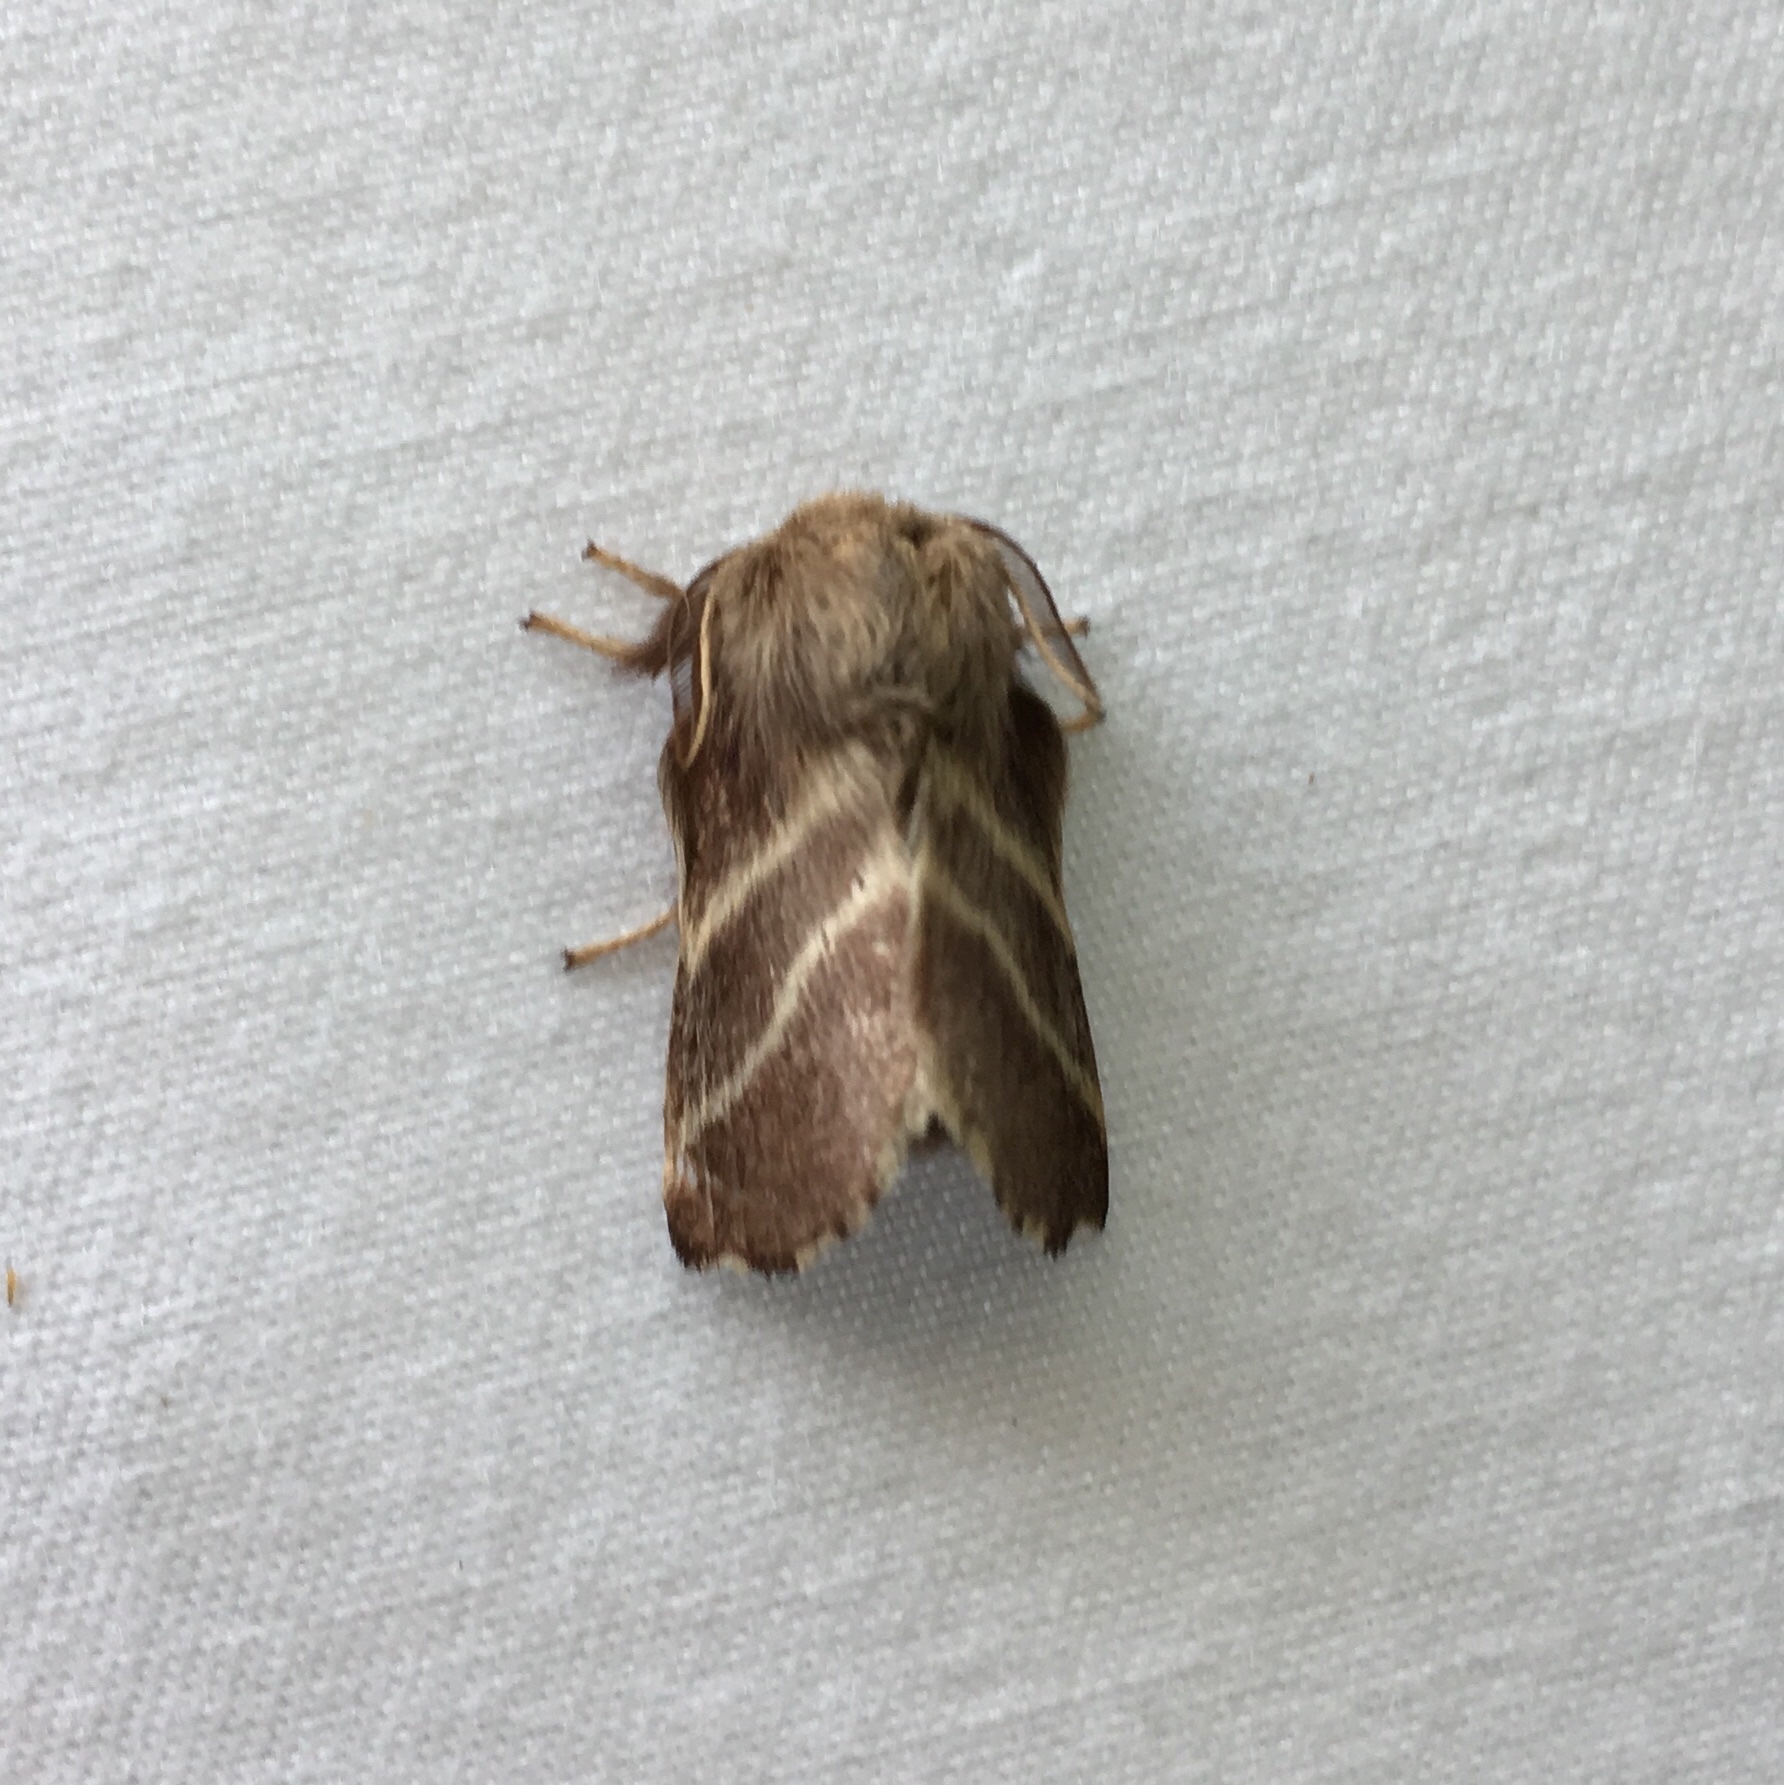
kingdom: Animalia
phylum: Arthropoda
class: Insecta
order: Lepidoptera
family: Lasiocampidae
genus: Malacosoma
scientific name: Malacosoma americana
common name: Eastern tent caterpillar moth
